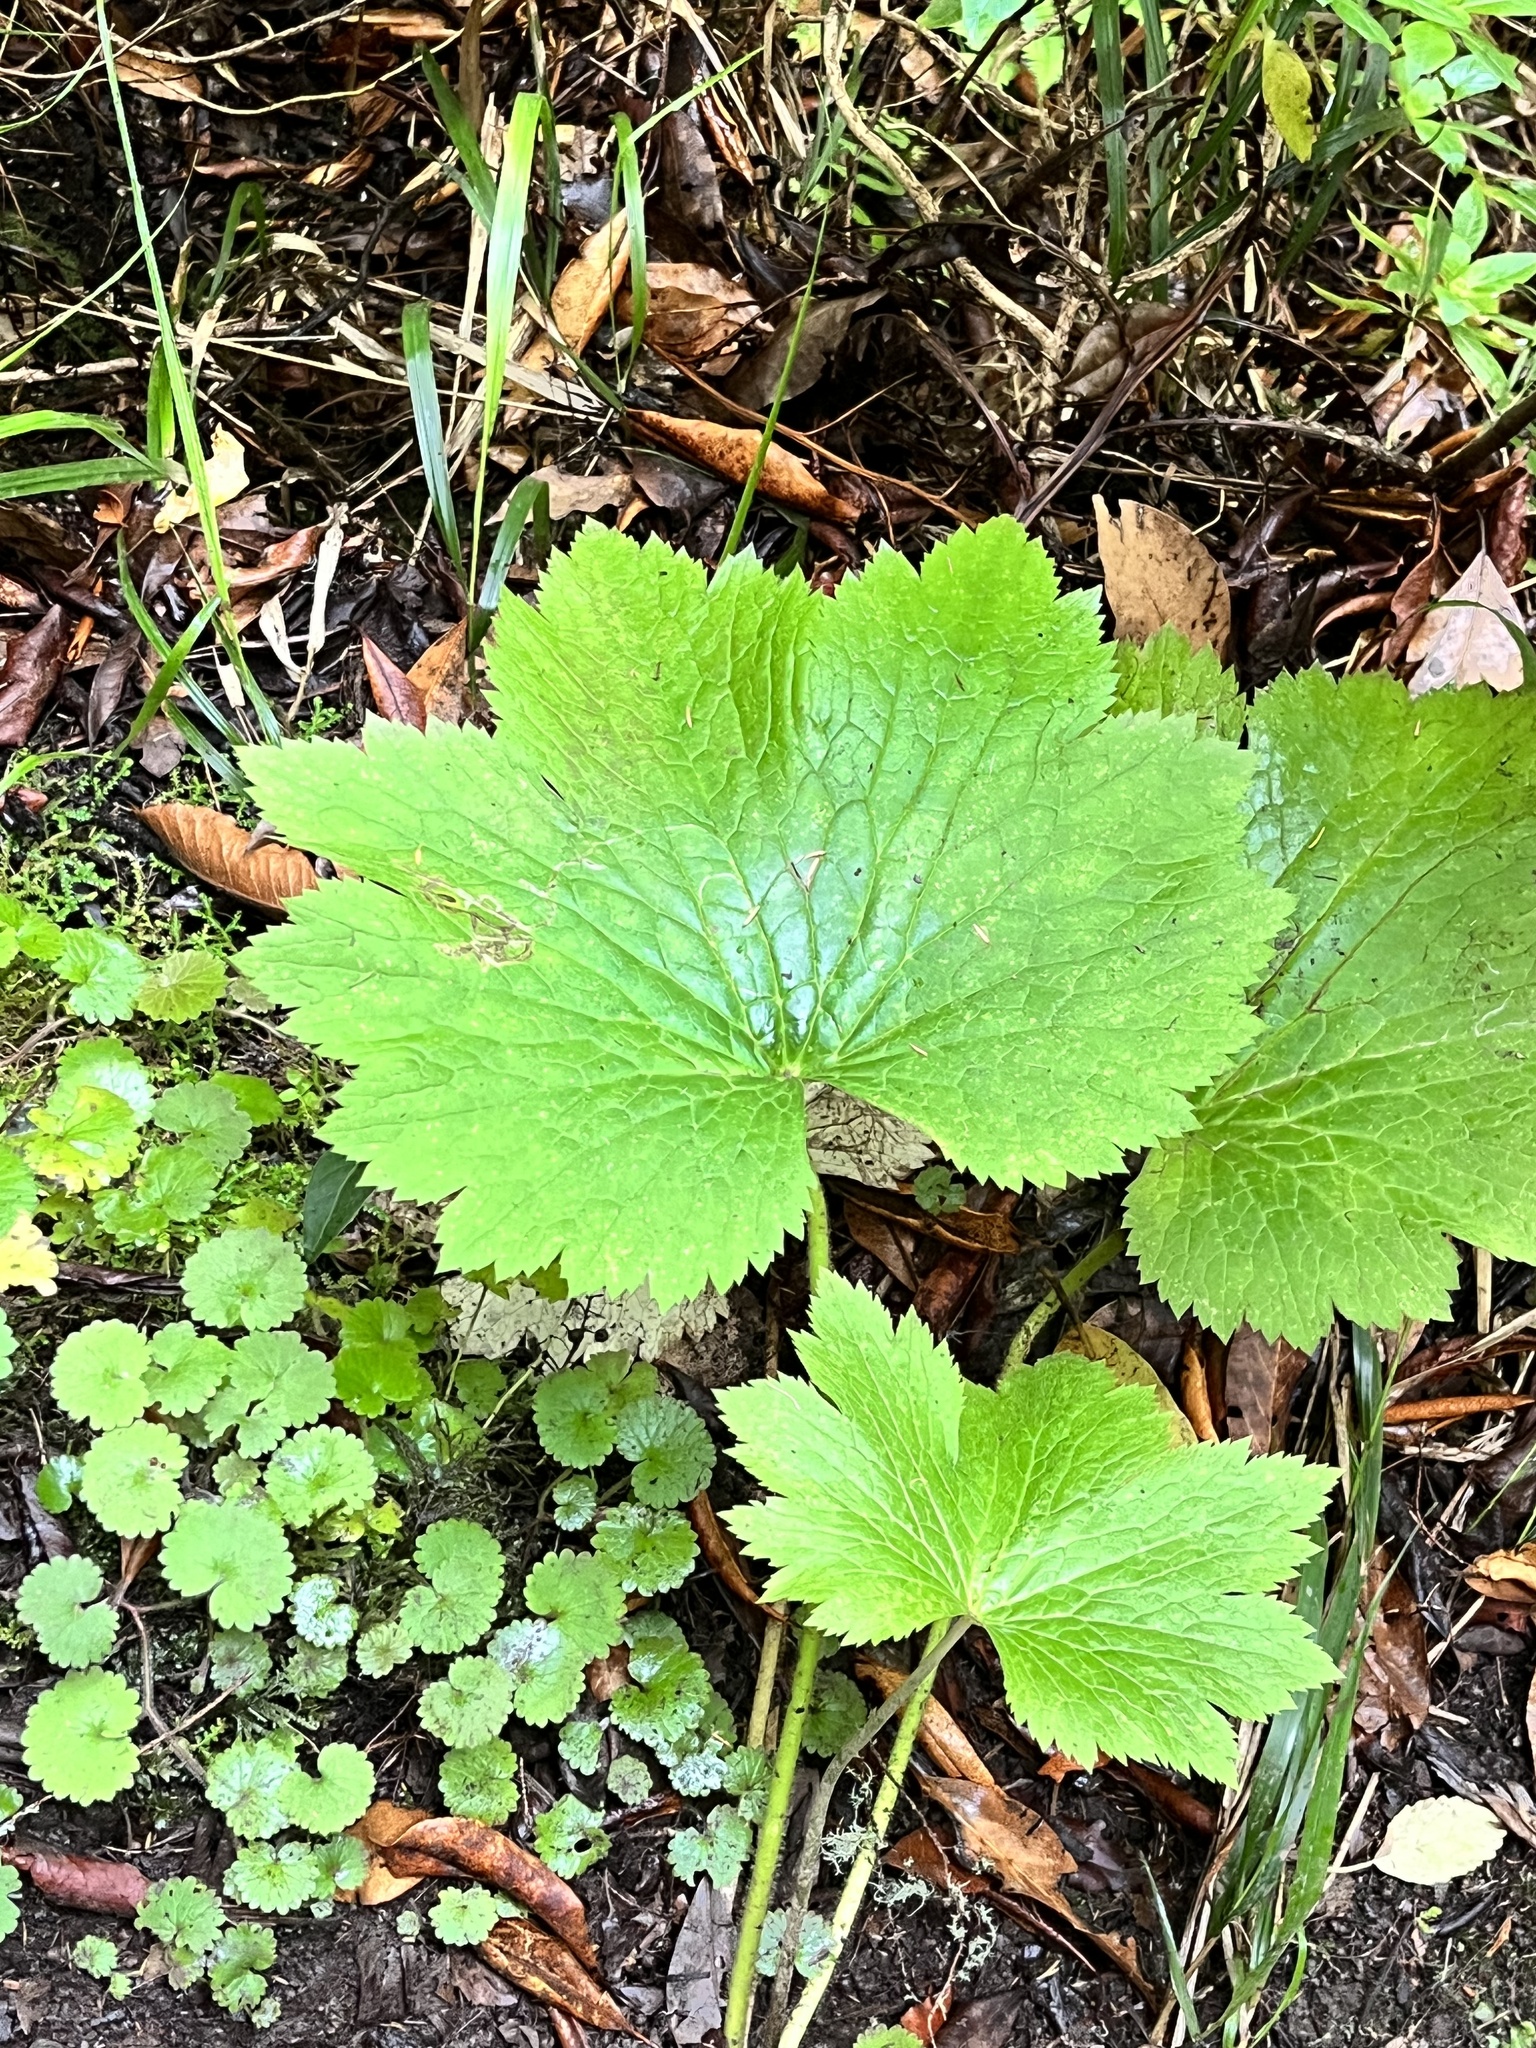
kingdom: Plantae
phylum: Tracheophyta
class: Magnoliopsida
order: Ranunculales
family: Ranunculaceae
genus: Ranunculus
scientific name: Ranunculus cortusifolius
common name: Azores buttercup
